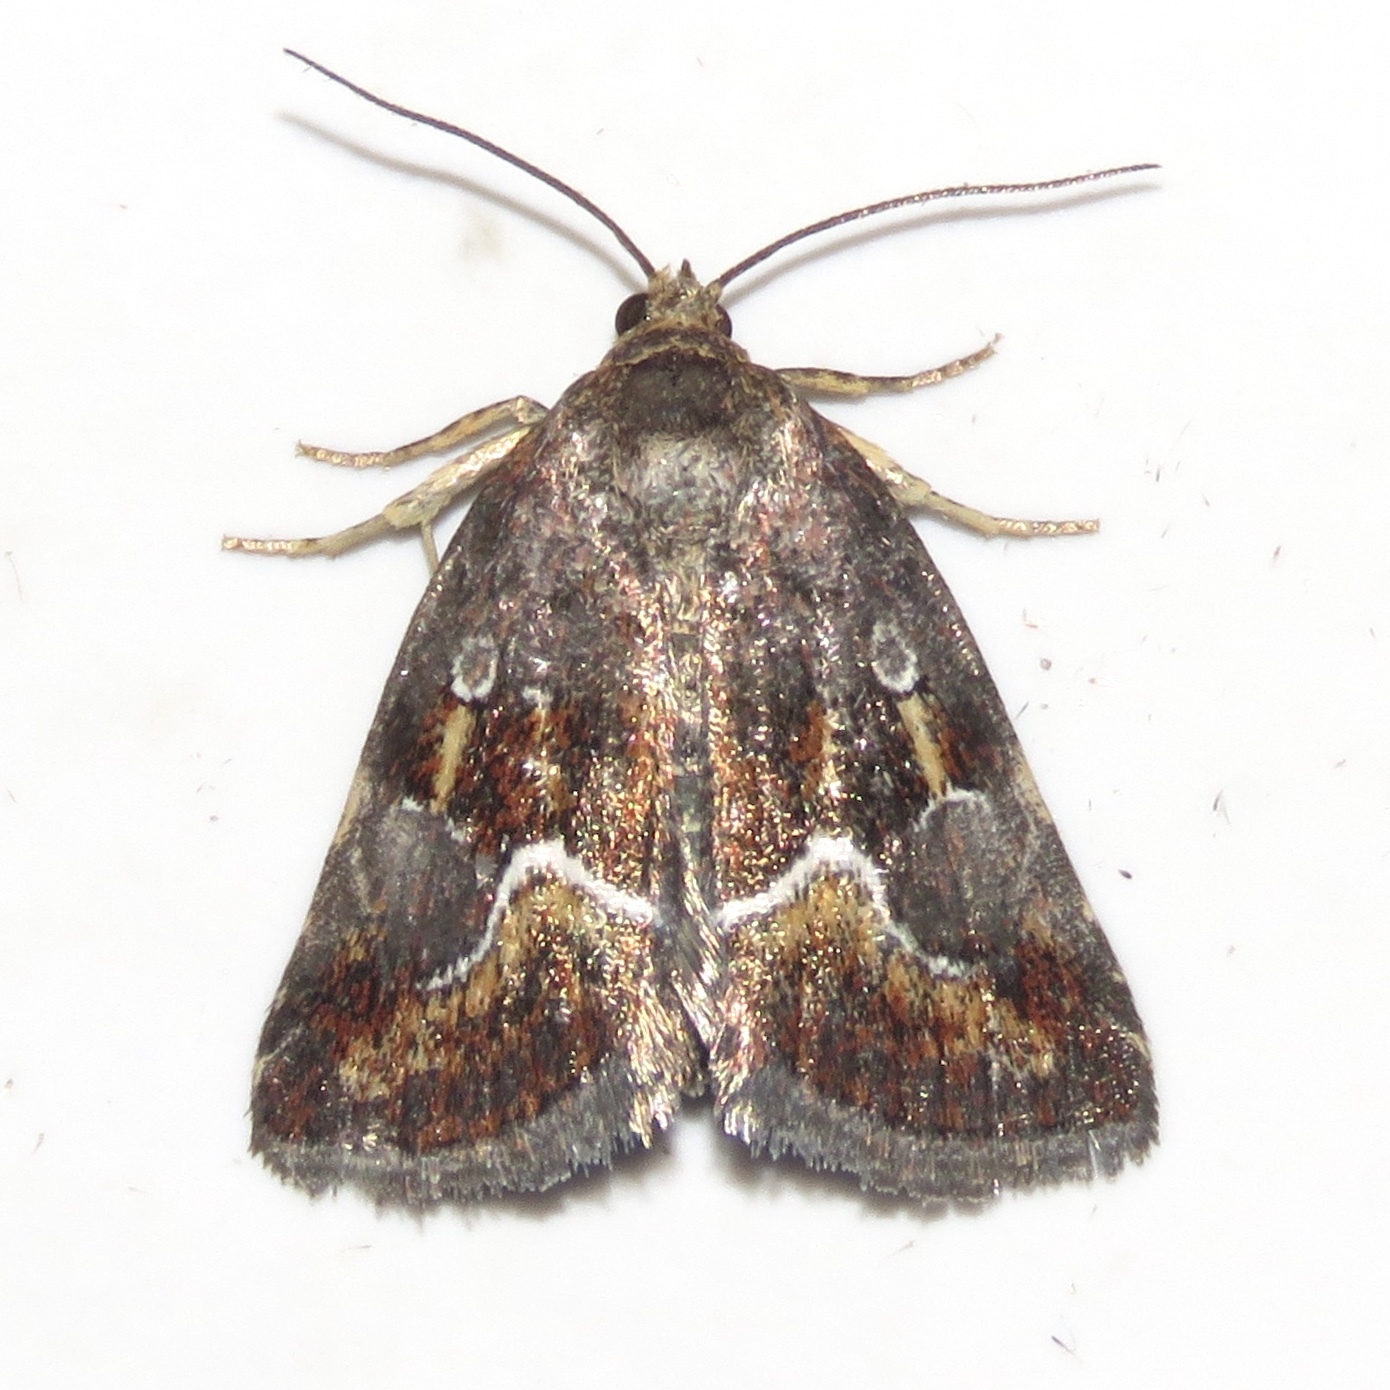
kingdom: Animalia
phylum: Arthropoda
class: Insecta
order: Lepidoptera
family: Noctuidae
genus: Deltote
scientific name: Deltote bellicula
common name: Bog glyph
